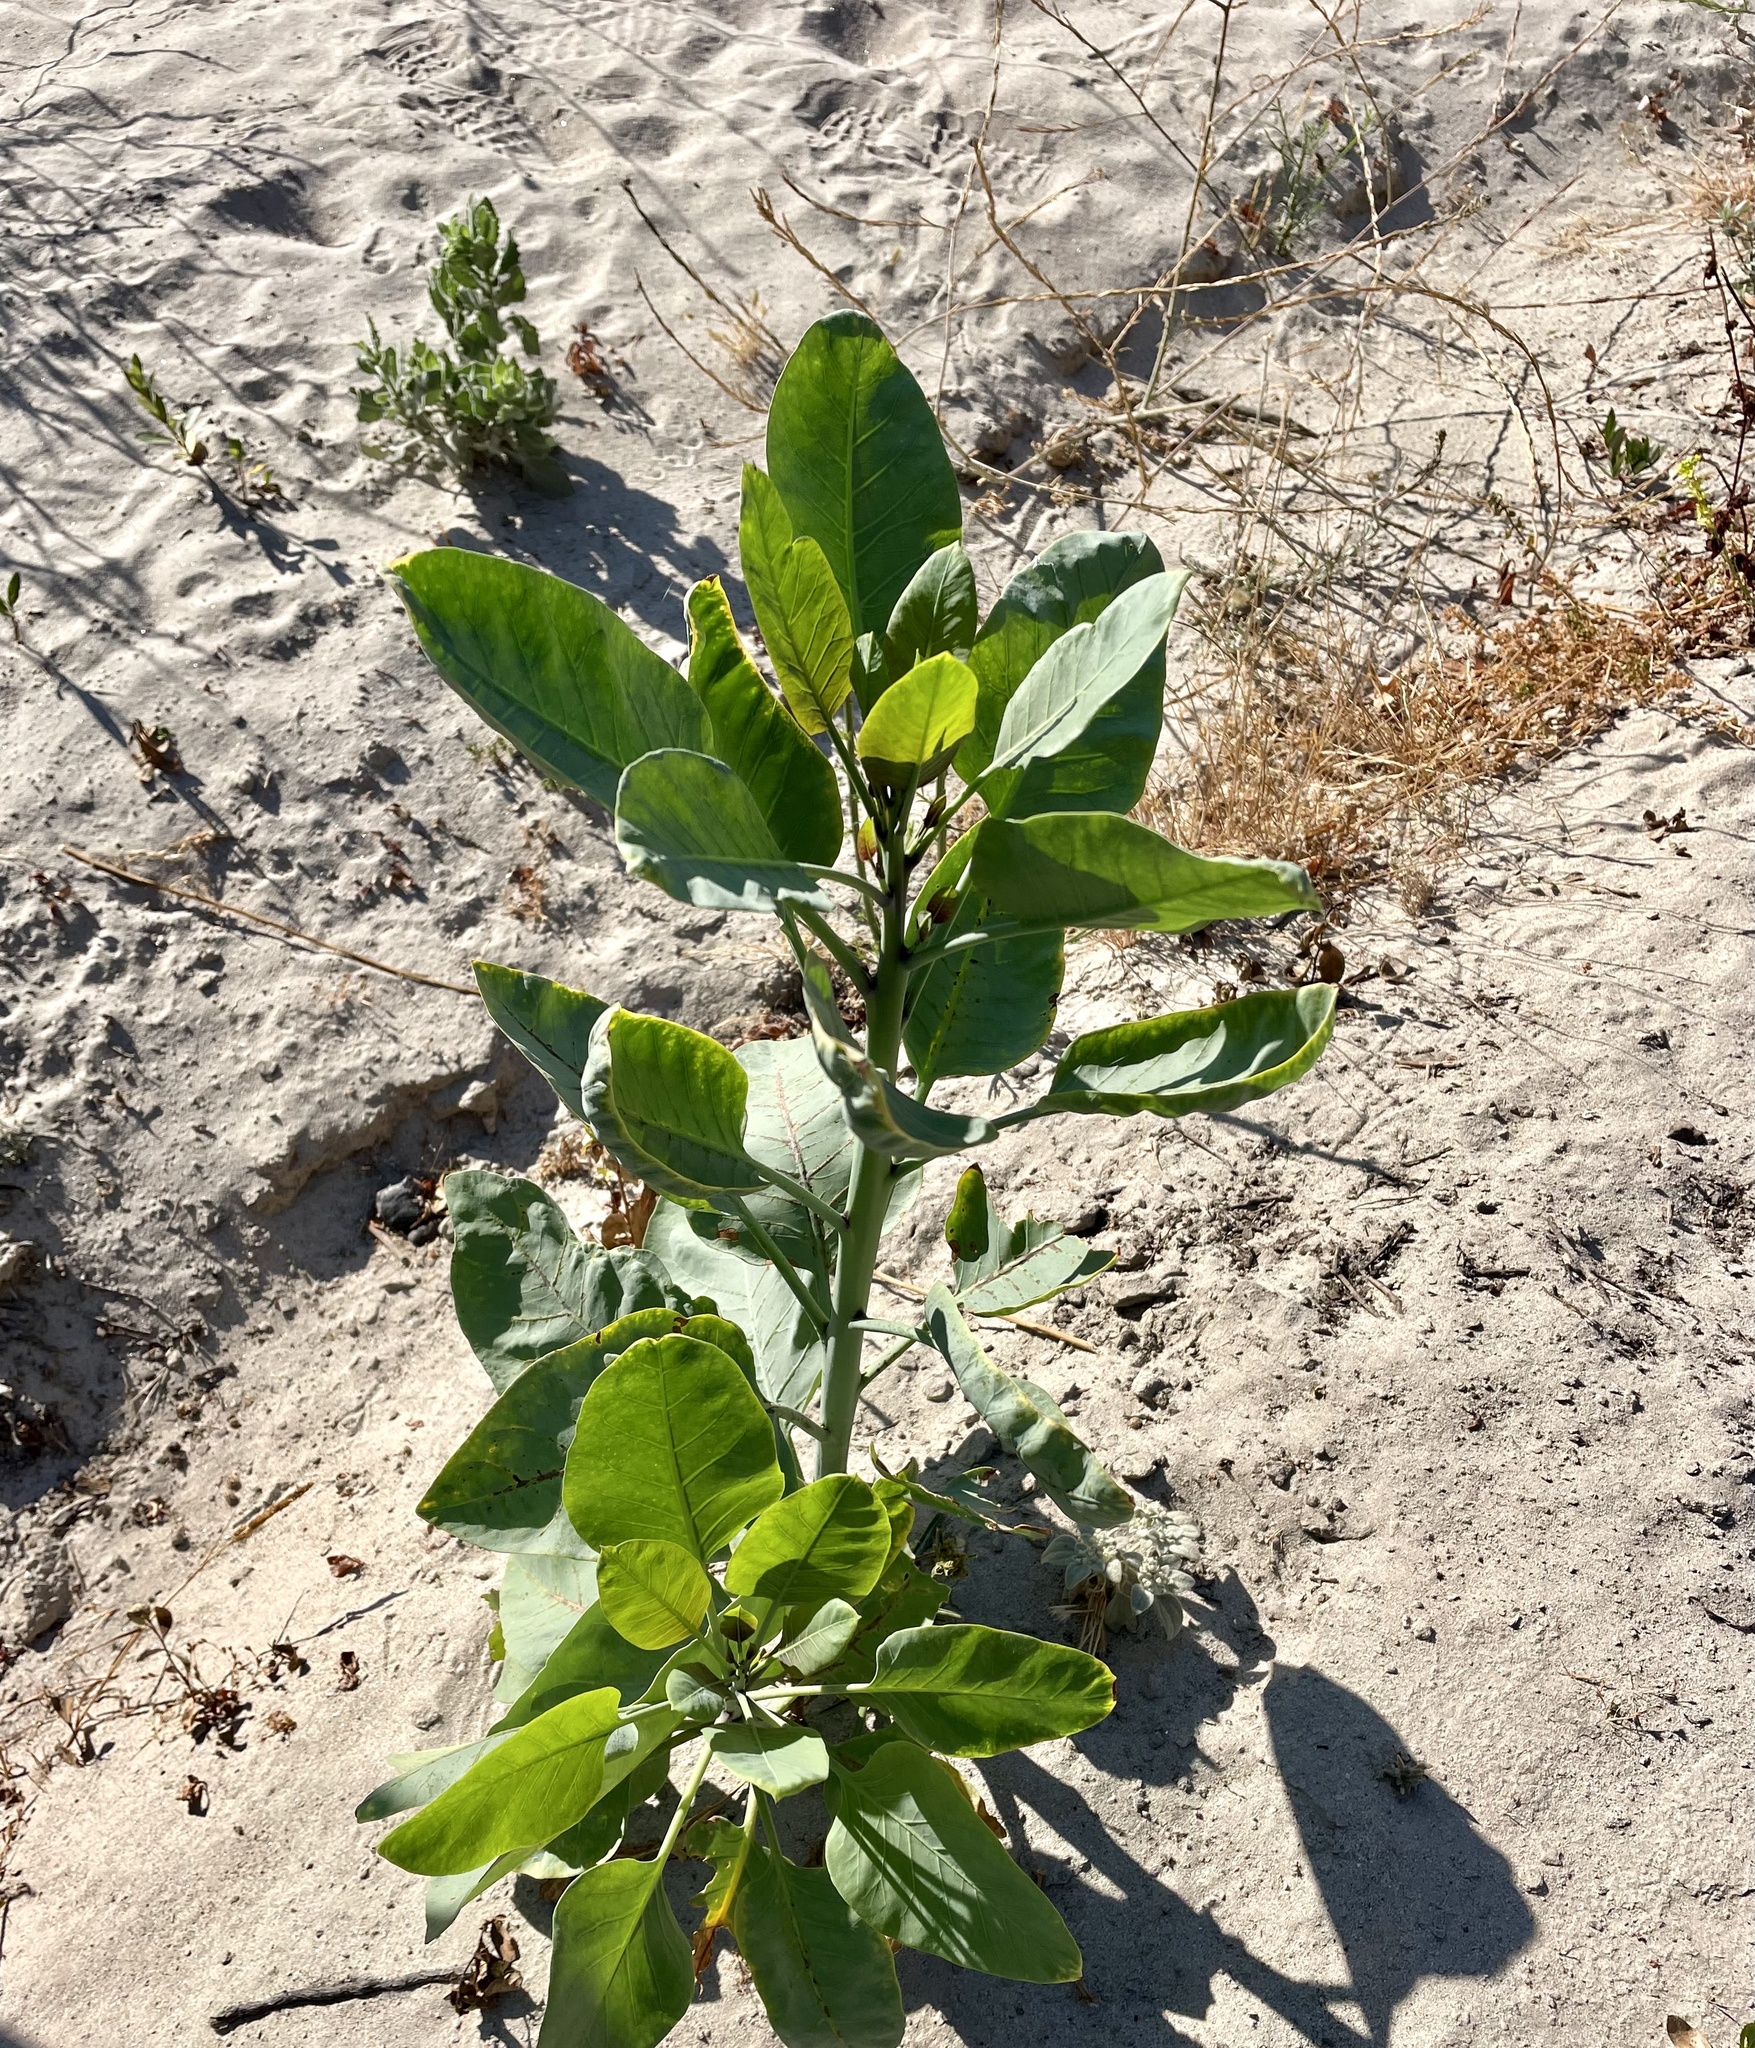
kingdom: Plantae
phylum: Tracheophyta
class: Magnoliopsida
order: Solanales
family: Solanaceae
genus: Nicotiana
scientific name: Nicotiana glauca
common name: Tree tobacco
